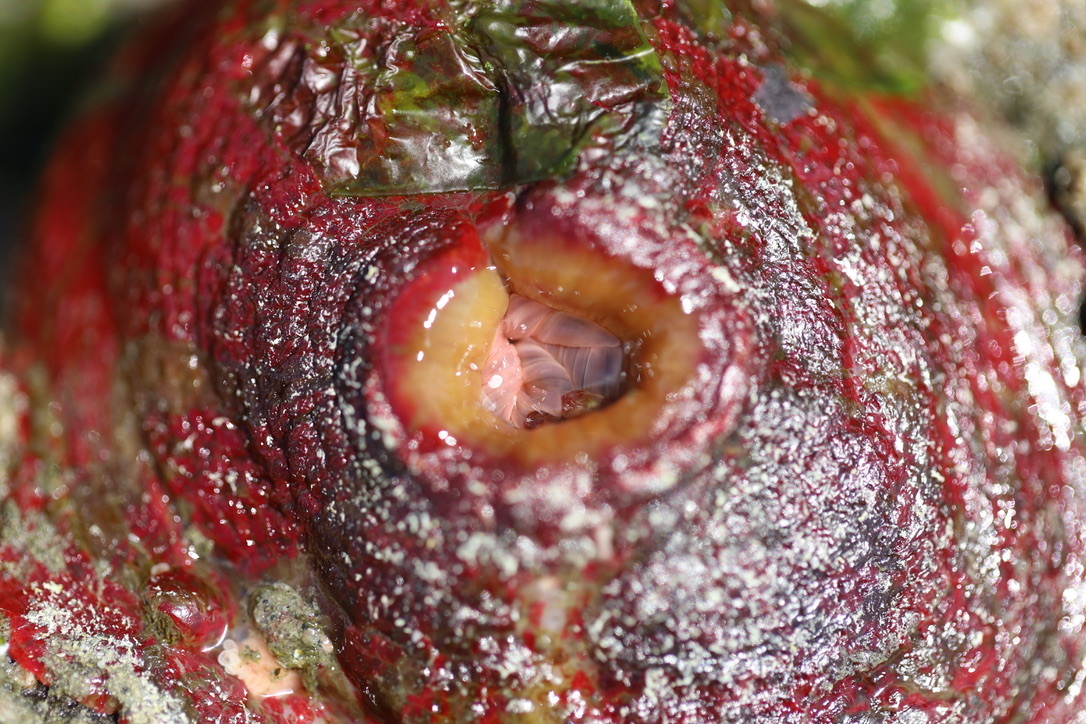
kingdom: Animalia
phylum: Cnidaria
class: Anthozoa
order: Actiniaria
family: Actiniidae
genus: Urticina
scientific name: Urticina grebelnyi
